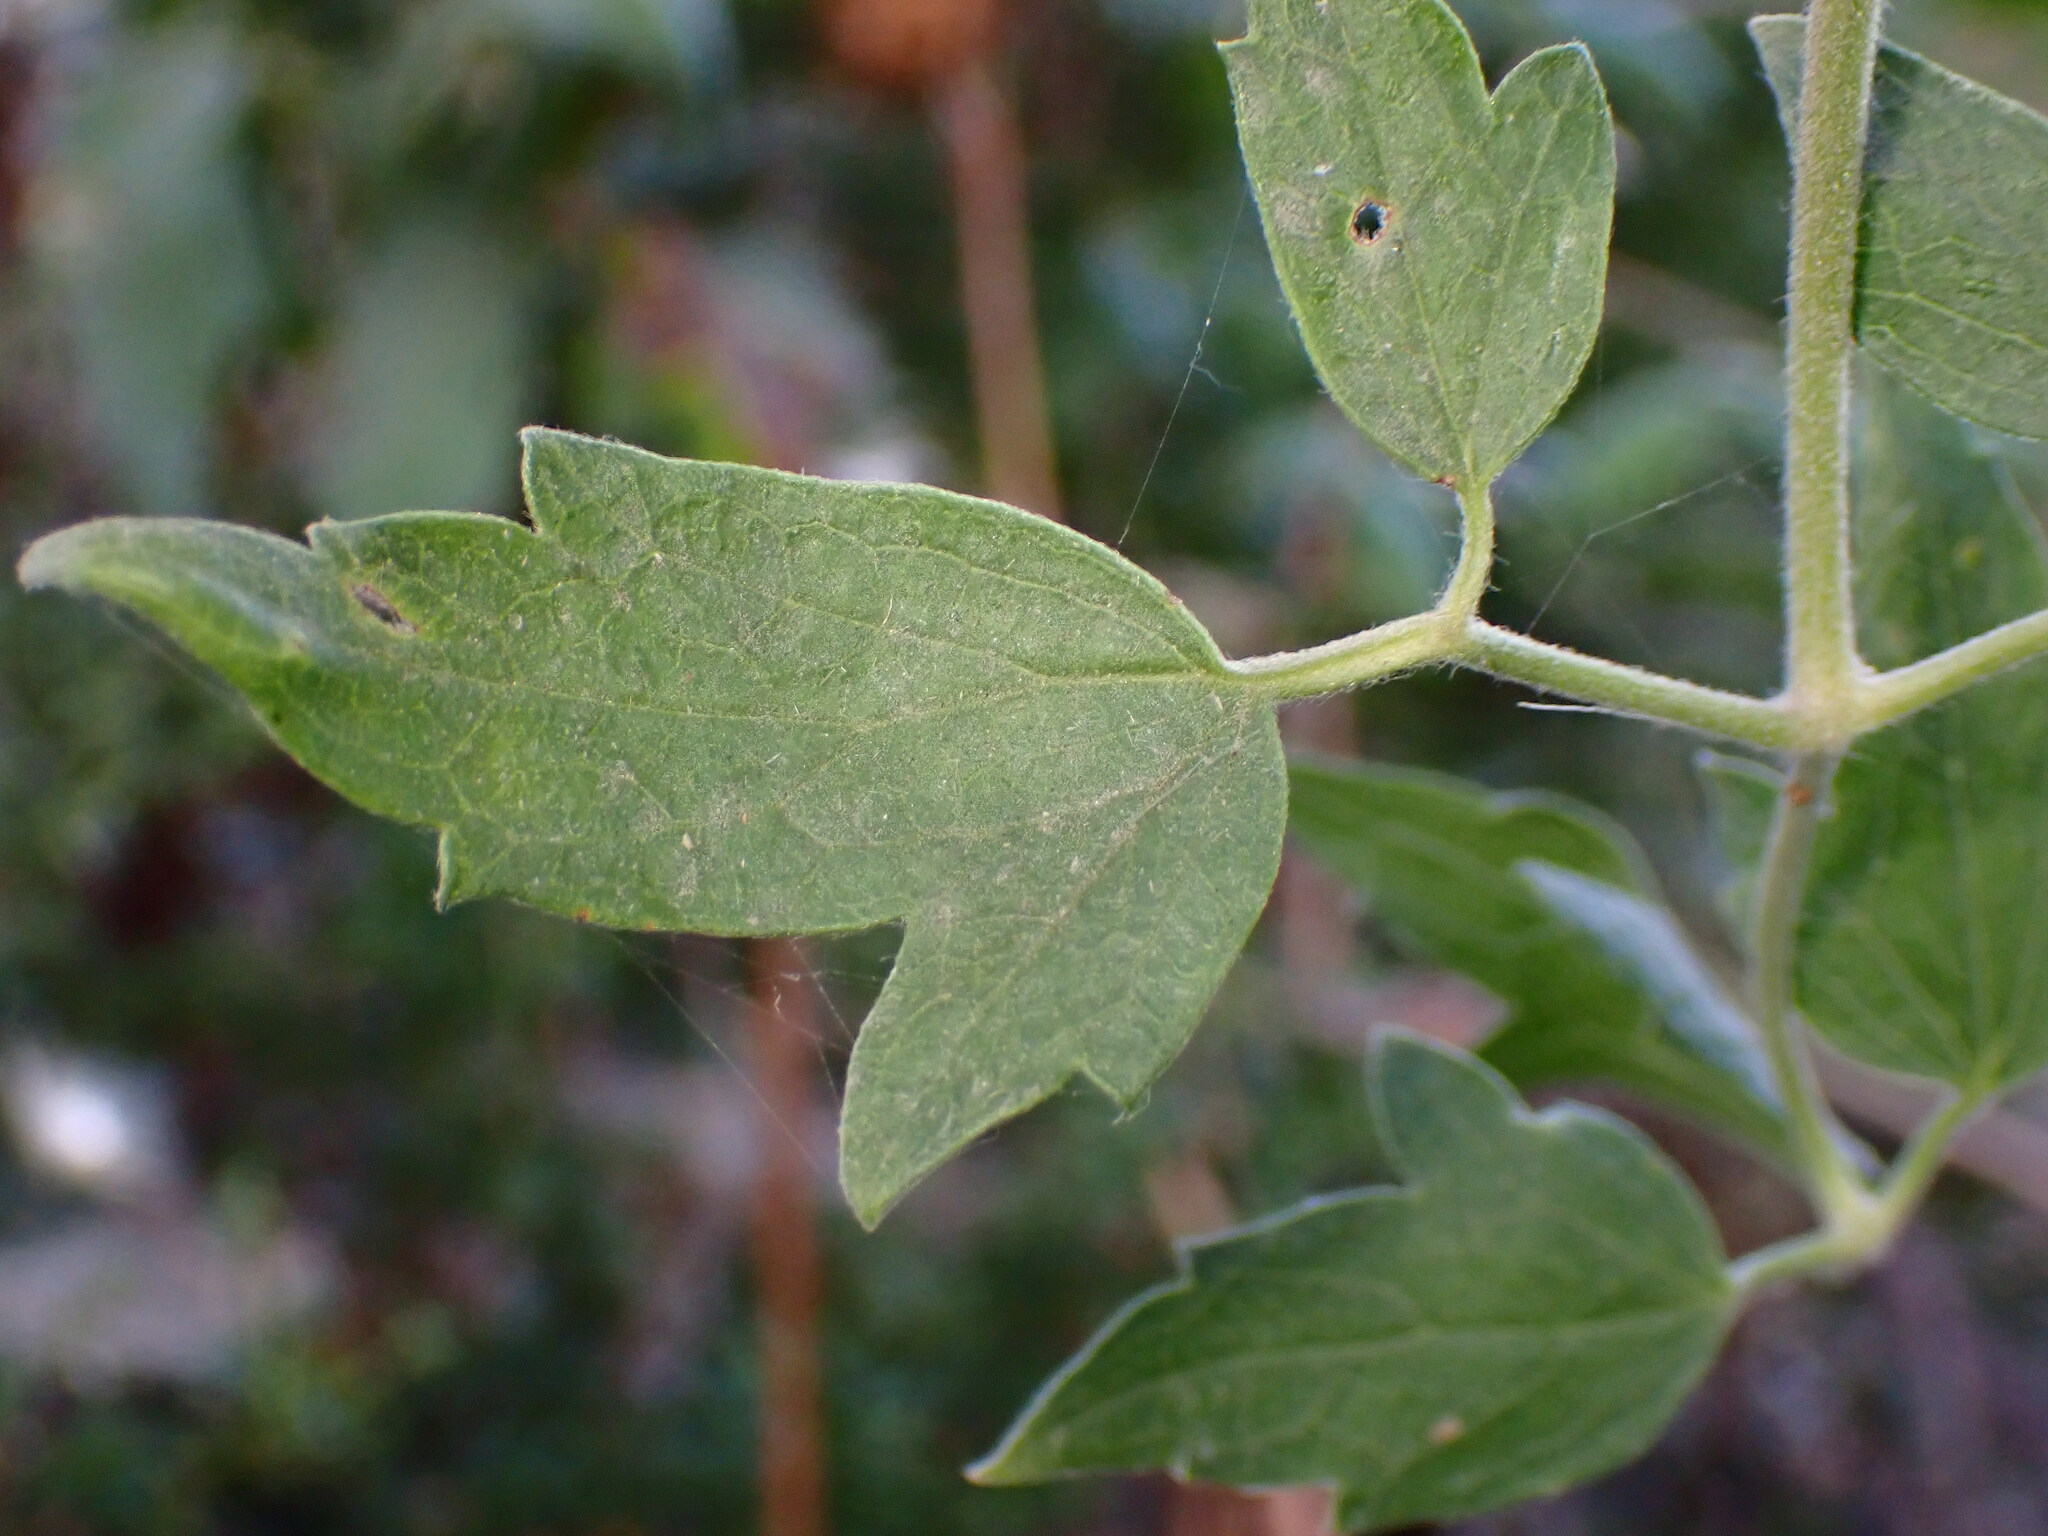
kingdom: Plantae
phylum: Tracheophyta
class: Magnoliopsida
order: Ranunculales
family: Ranunculaceae
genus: Clematis
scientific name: Clematis ligusticifolia
